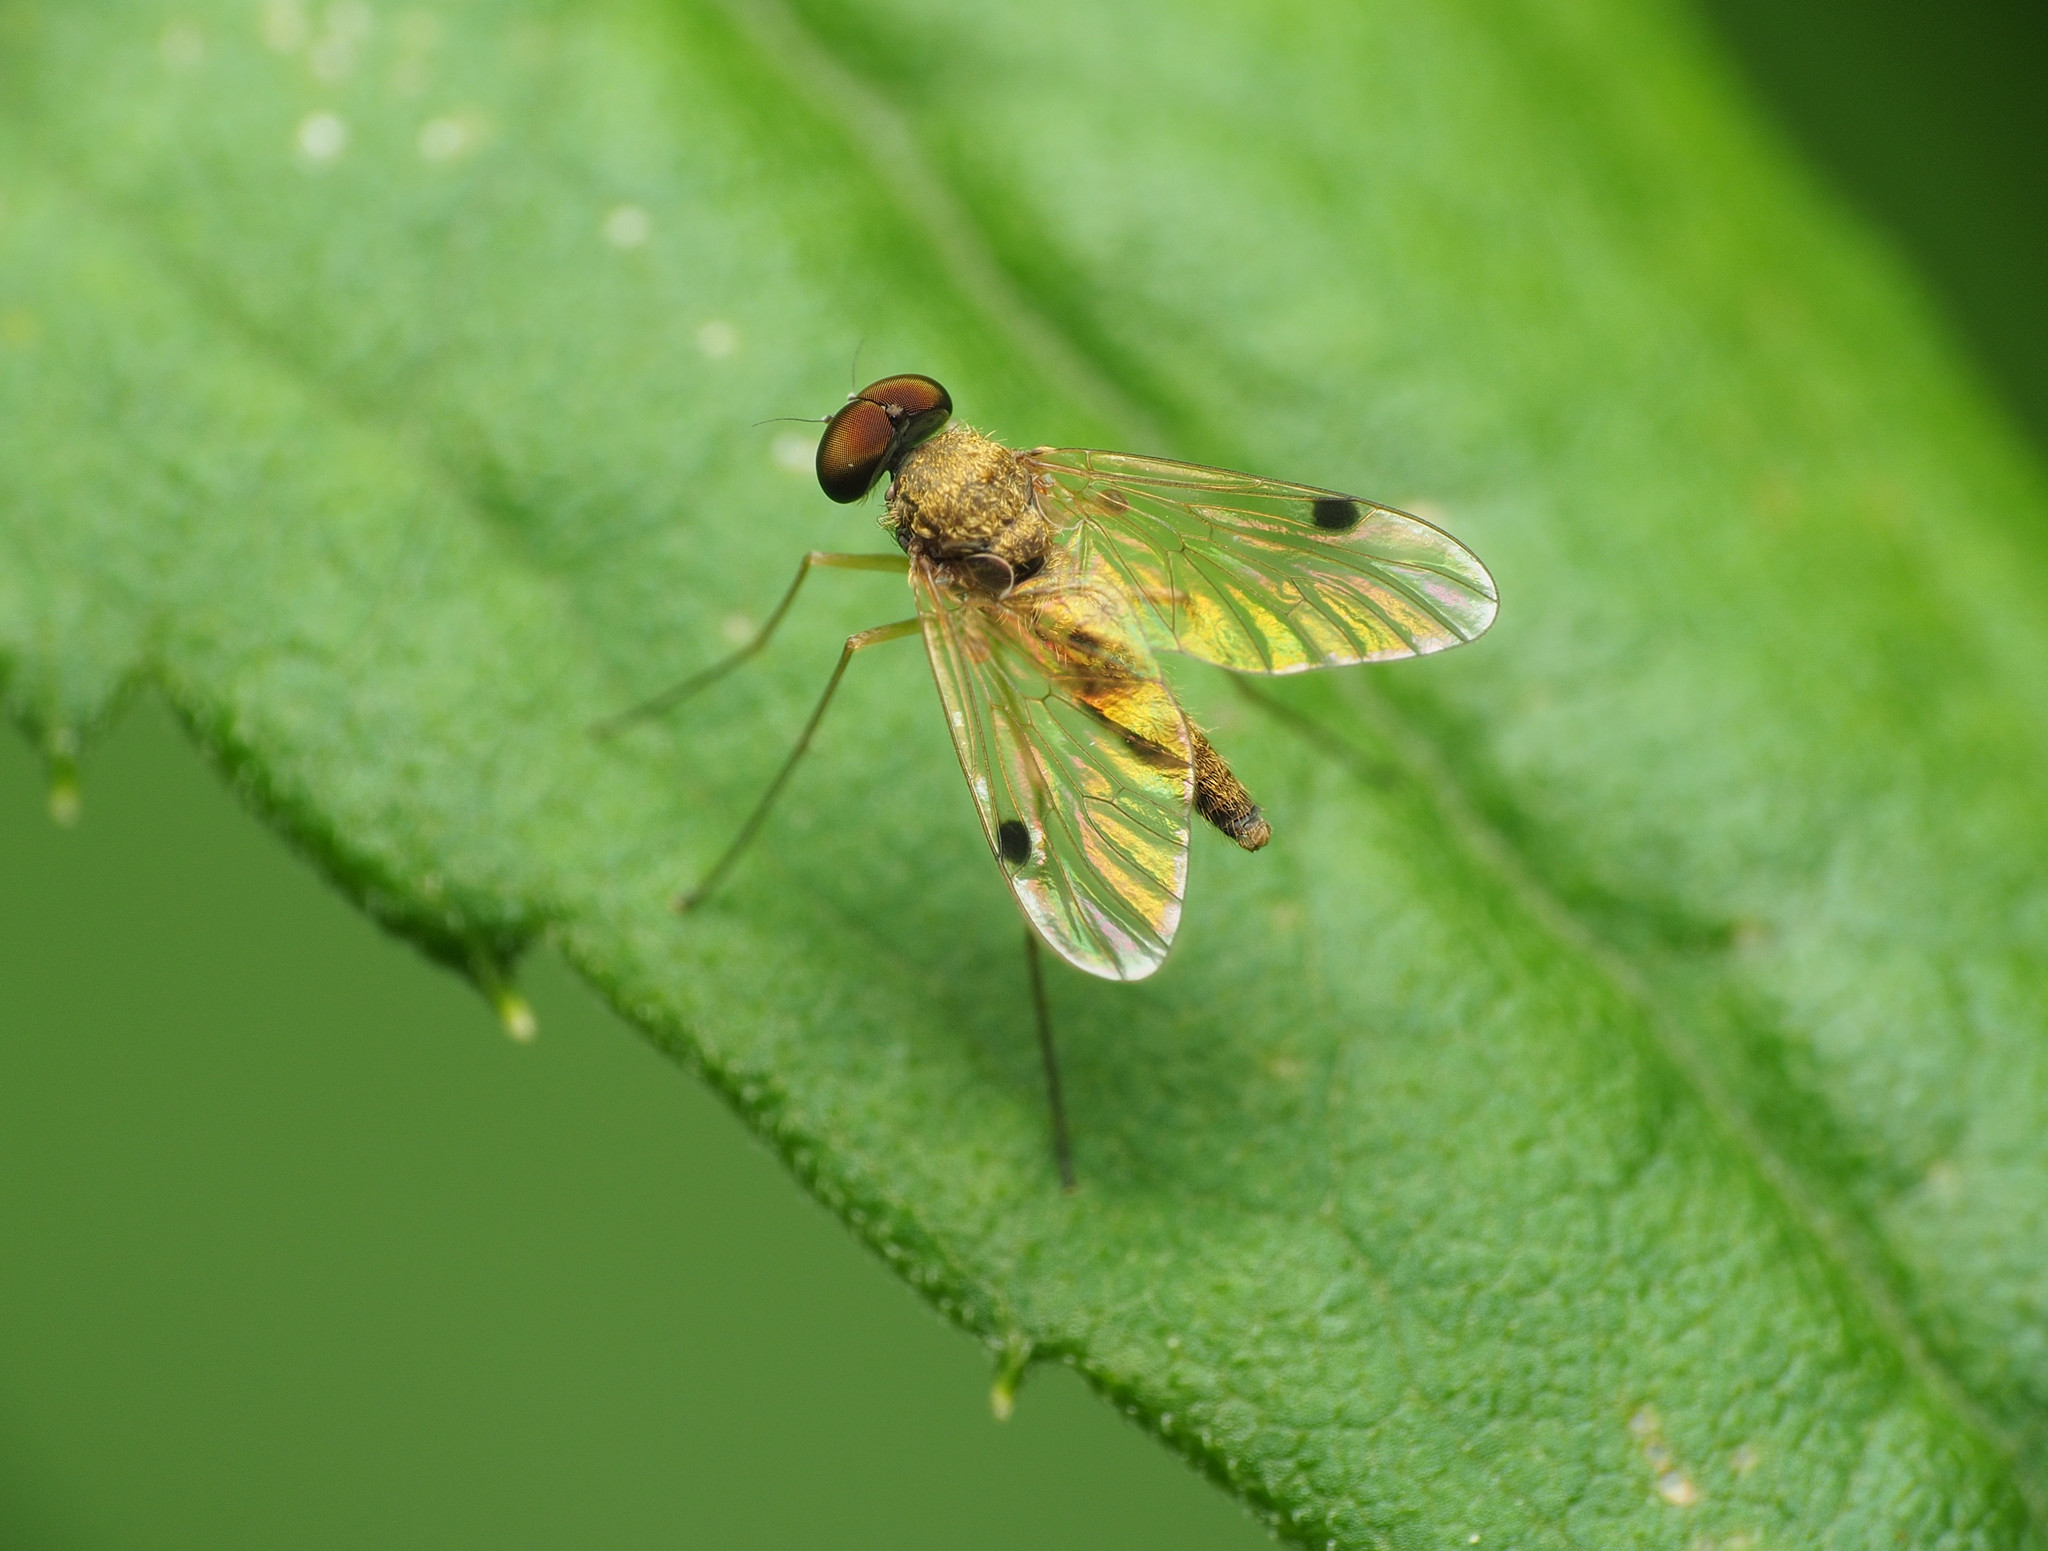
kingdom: Animalia
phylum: Arthropoda
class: Insecta
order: Diptera
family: Rhagionidae
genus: Chrysopilus
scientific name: Chrysopilus modestus
